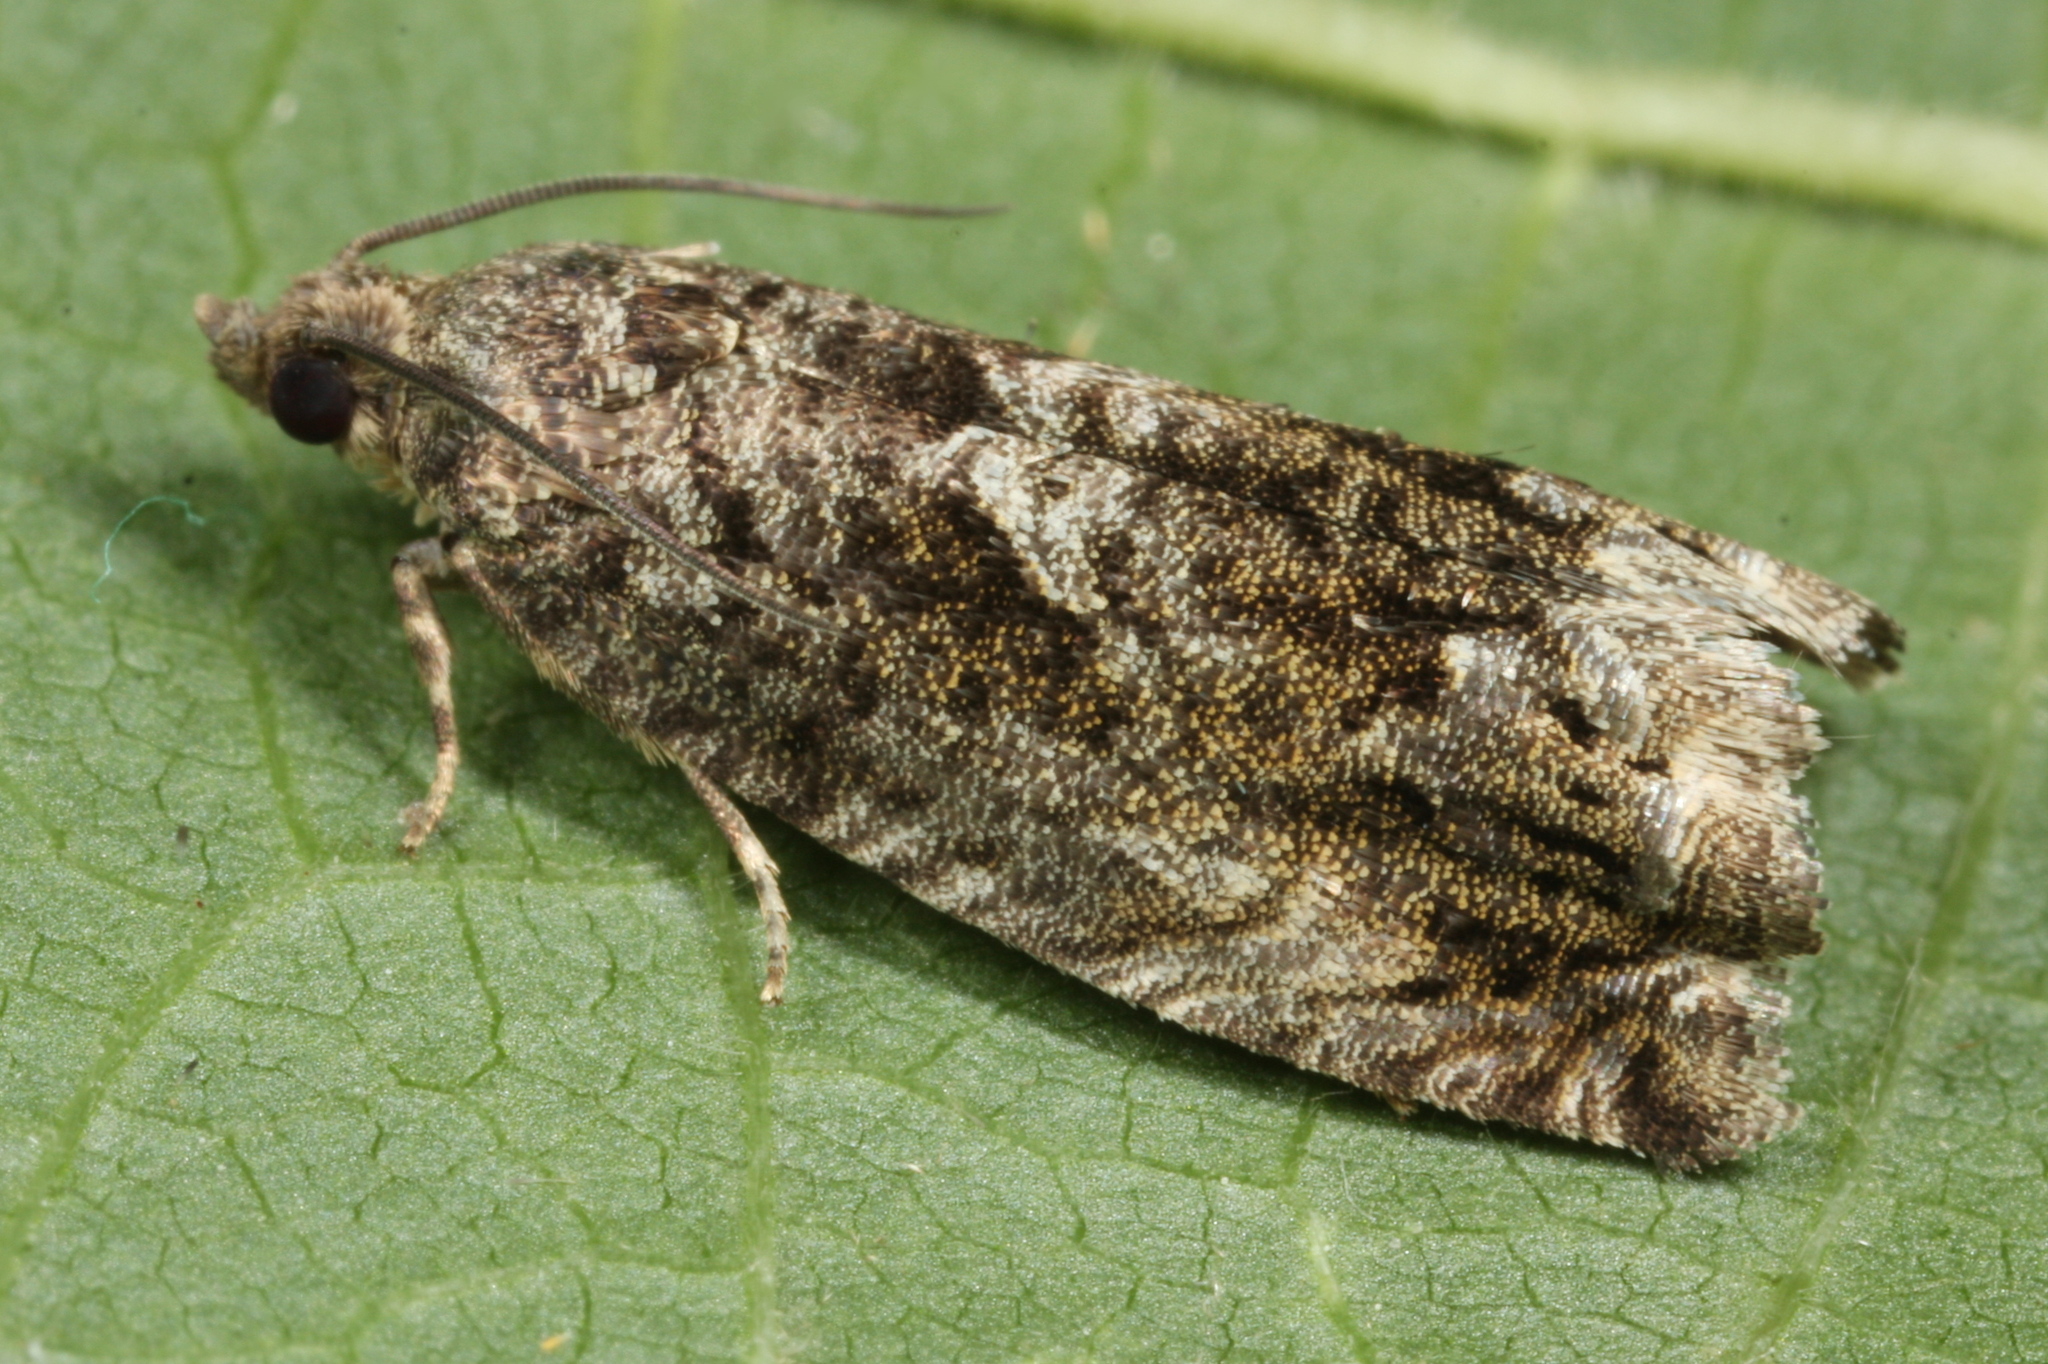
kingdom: Animalia
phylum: Arthropoda
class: Insecta
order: Lepidoptera
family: Tortricidae
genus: Cydia
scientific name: Cydia fagiglandana
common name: Large beech piercer
